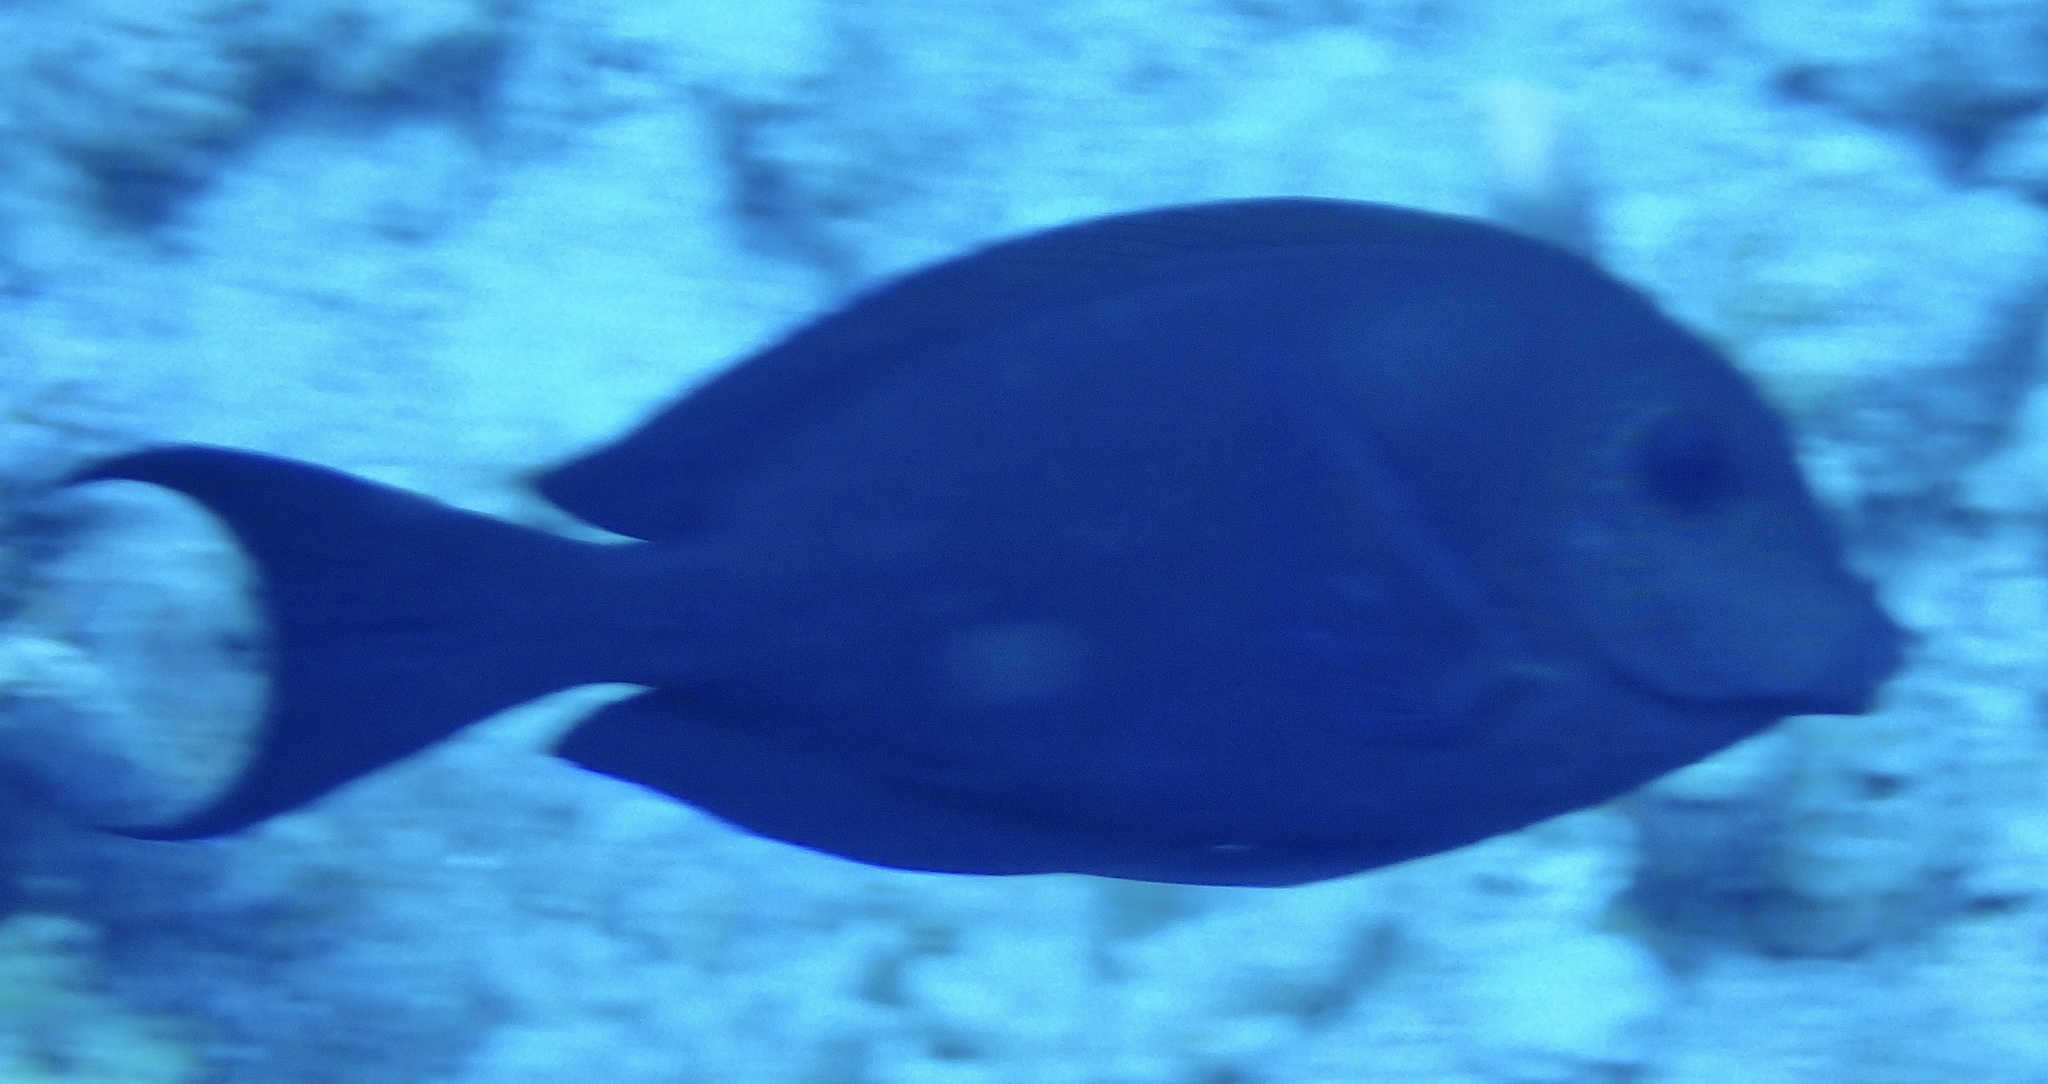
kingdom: Animalia
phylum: Chordata
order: Perciformes
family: Acanthuridae
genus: Ctenochaetus
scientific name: Ctenochaetus striatus
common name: Bristle-toothed surgeonfish
